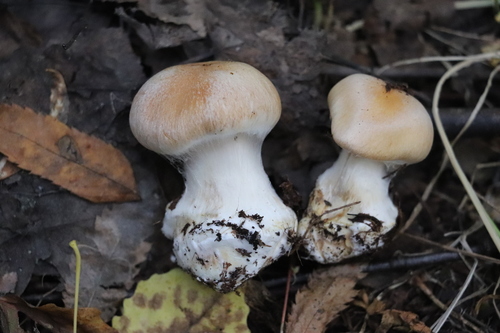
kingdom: Fungi
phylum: Basidiomycota
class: Agaricomycetes
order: Agaricales
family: Cortinariaceae
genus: Cortinarius
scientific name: Cortinarius
